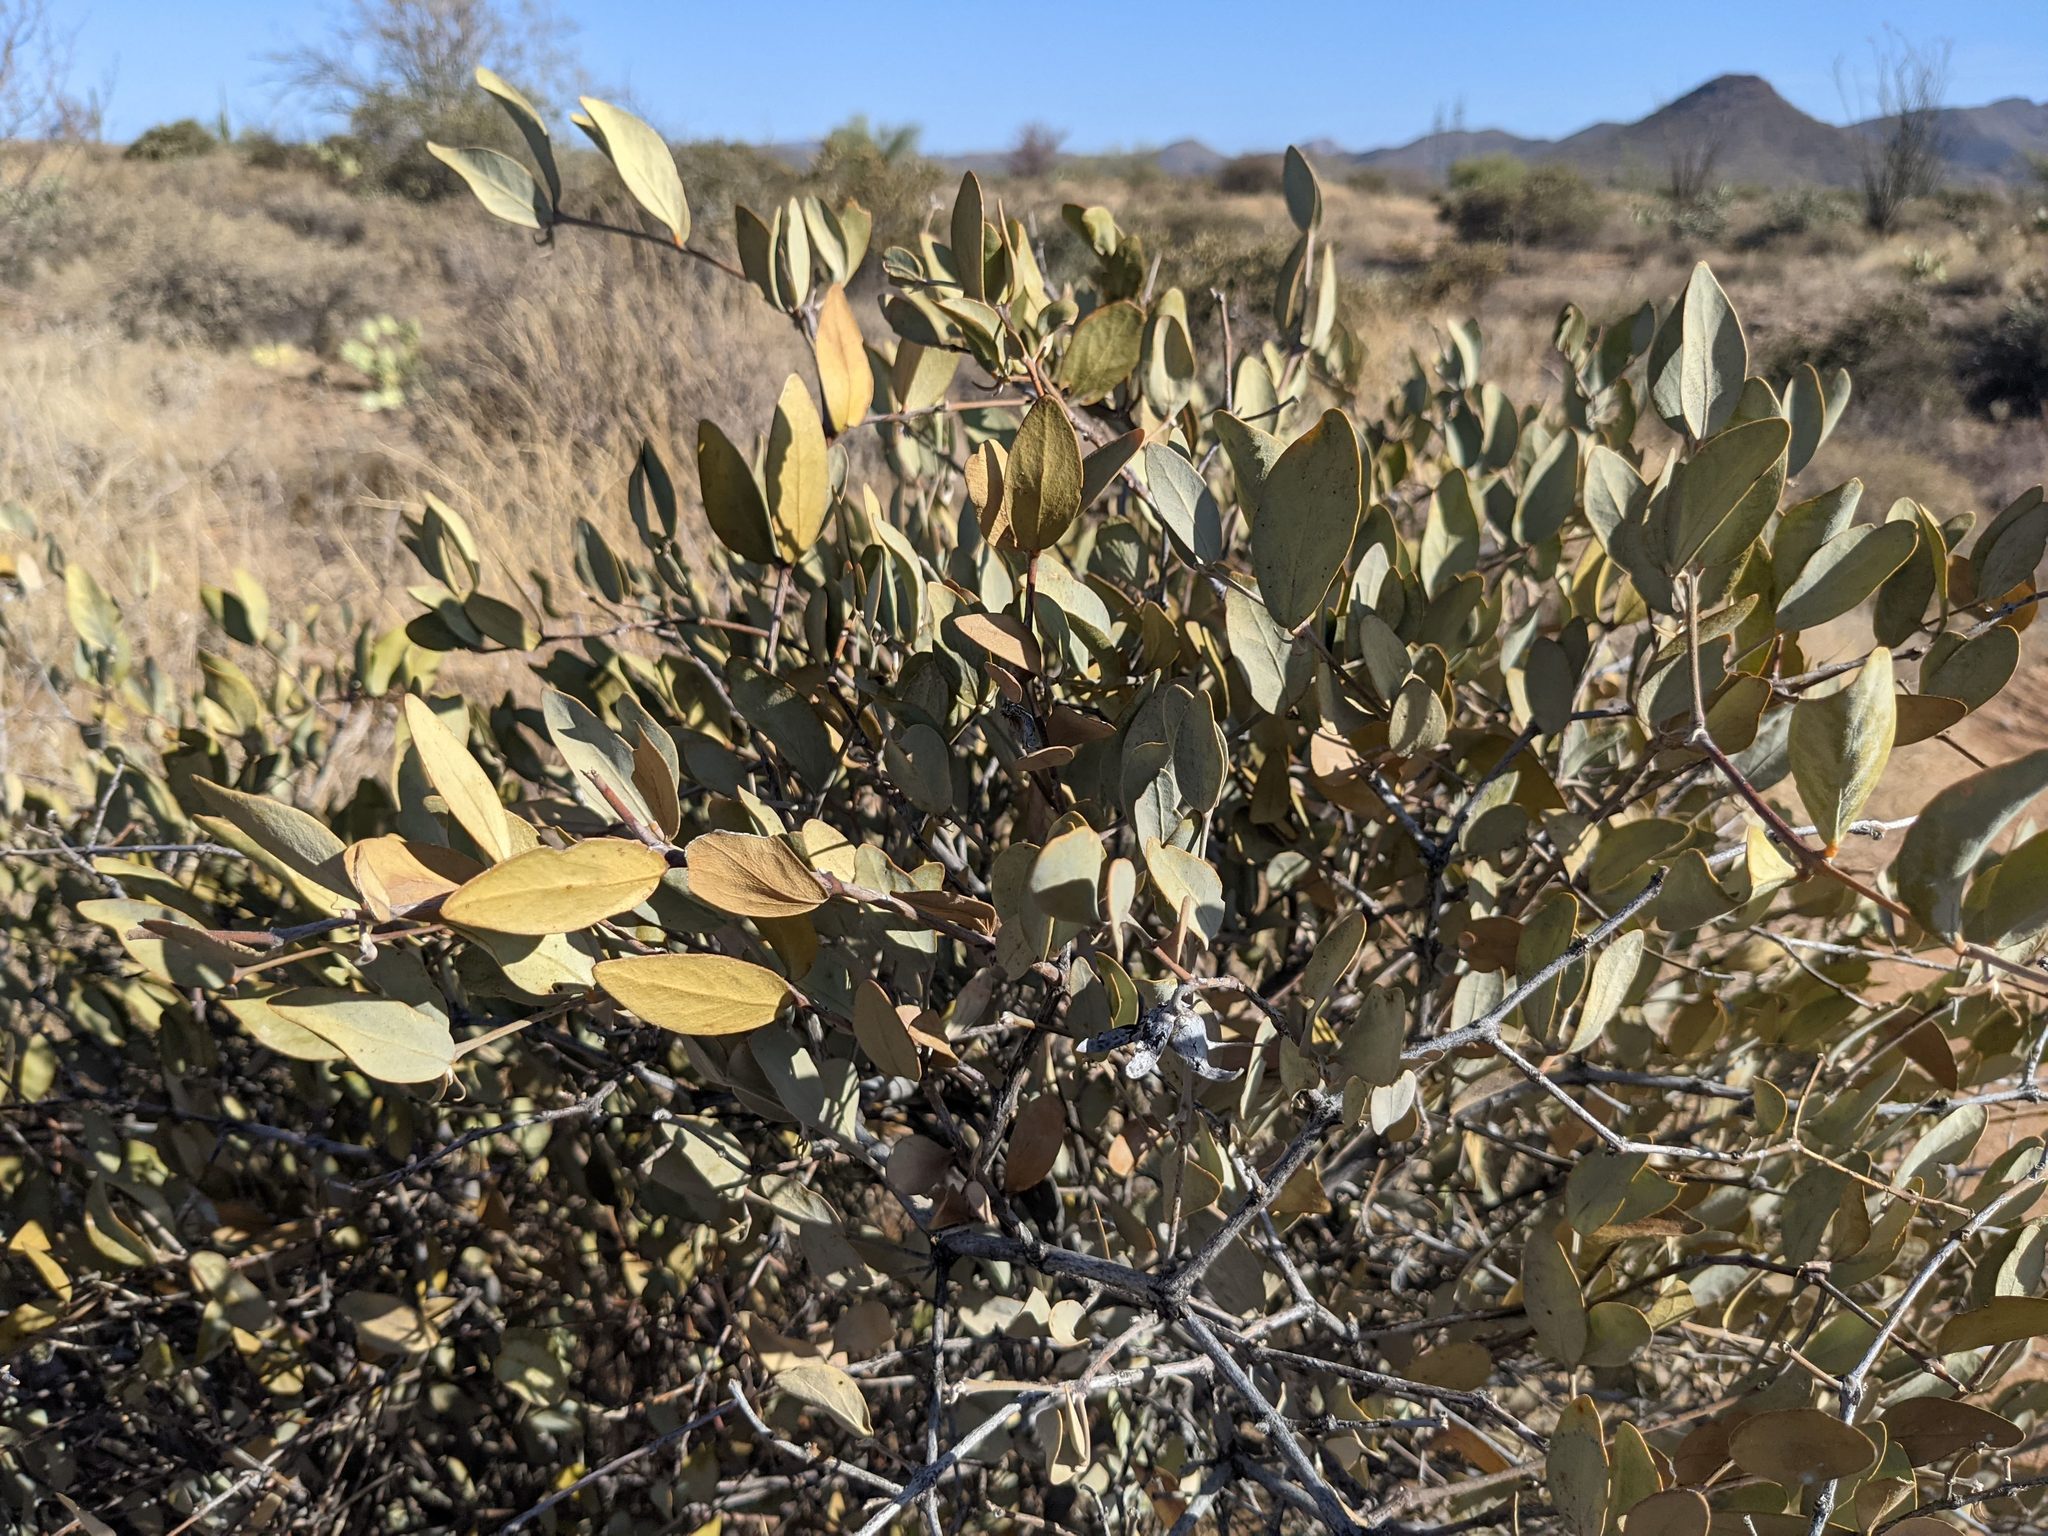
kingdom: Plantae
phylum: Tracheophyta
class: Magnoliopsida
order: Caryophyllales
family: Simmondsiaceae
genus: Simmondsia
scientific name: Simmondsia chinensis
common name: Jojoba
